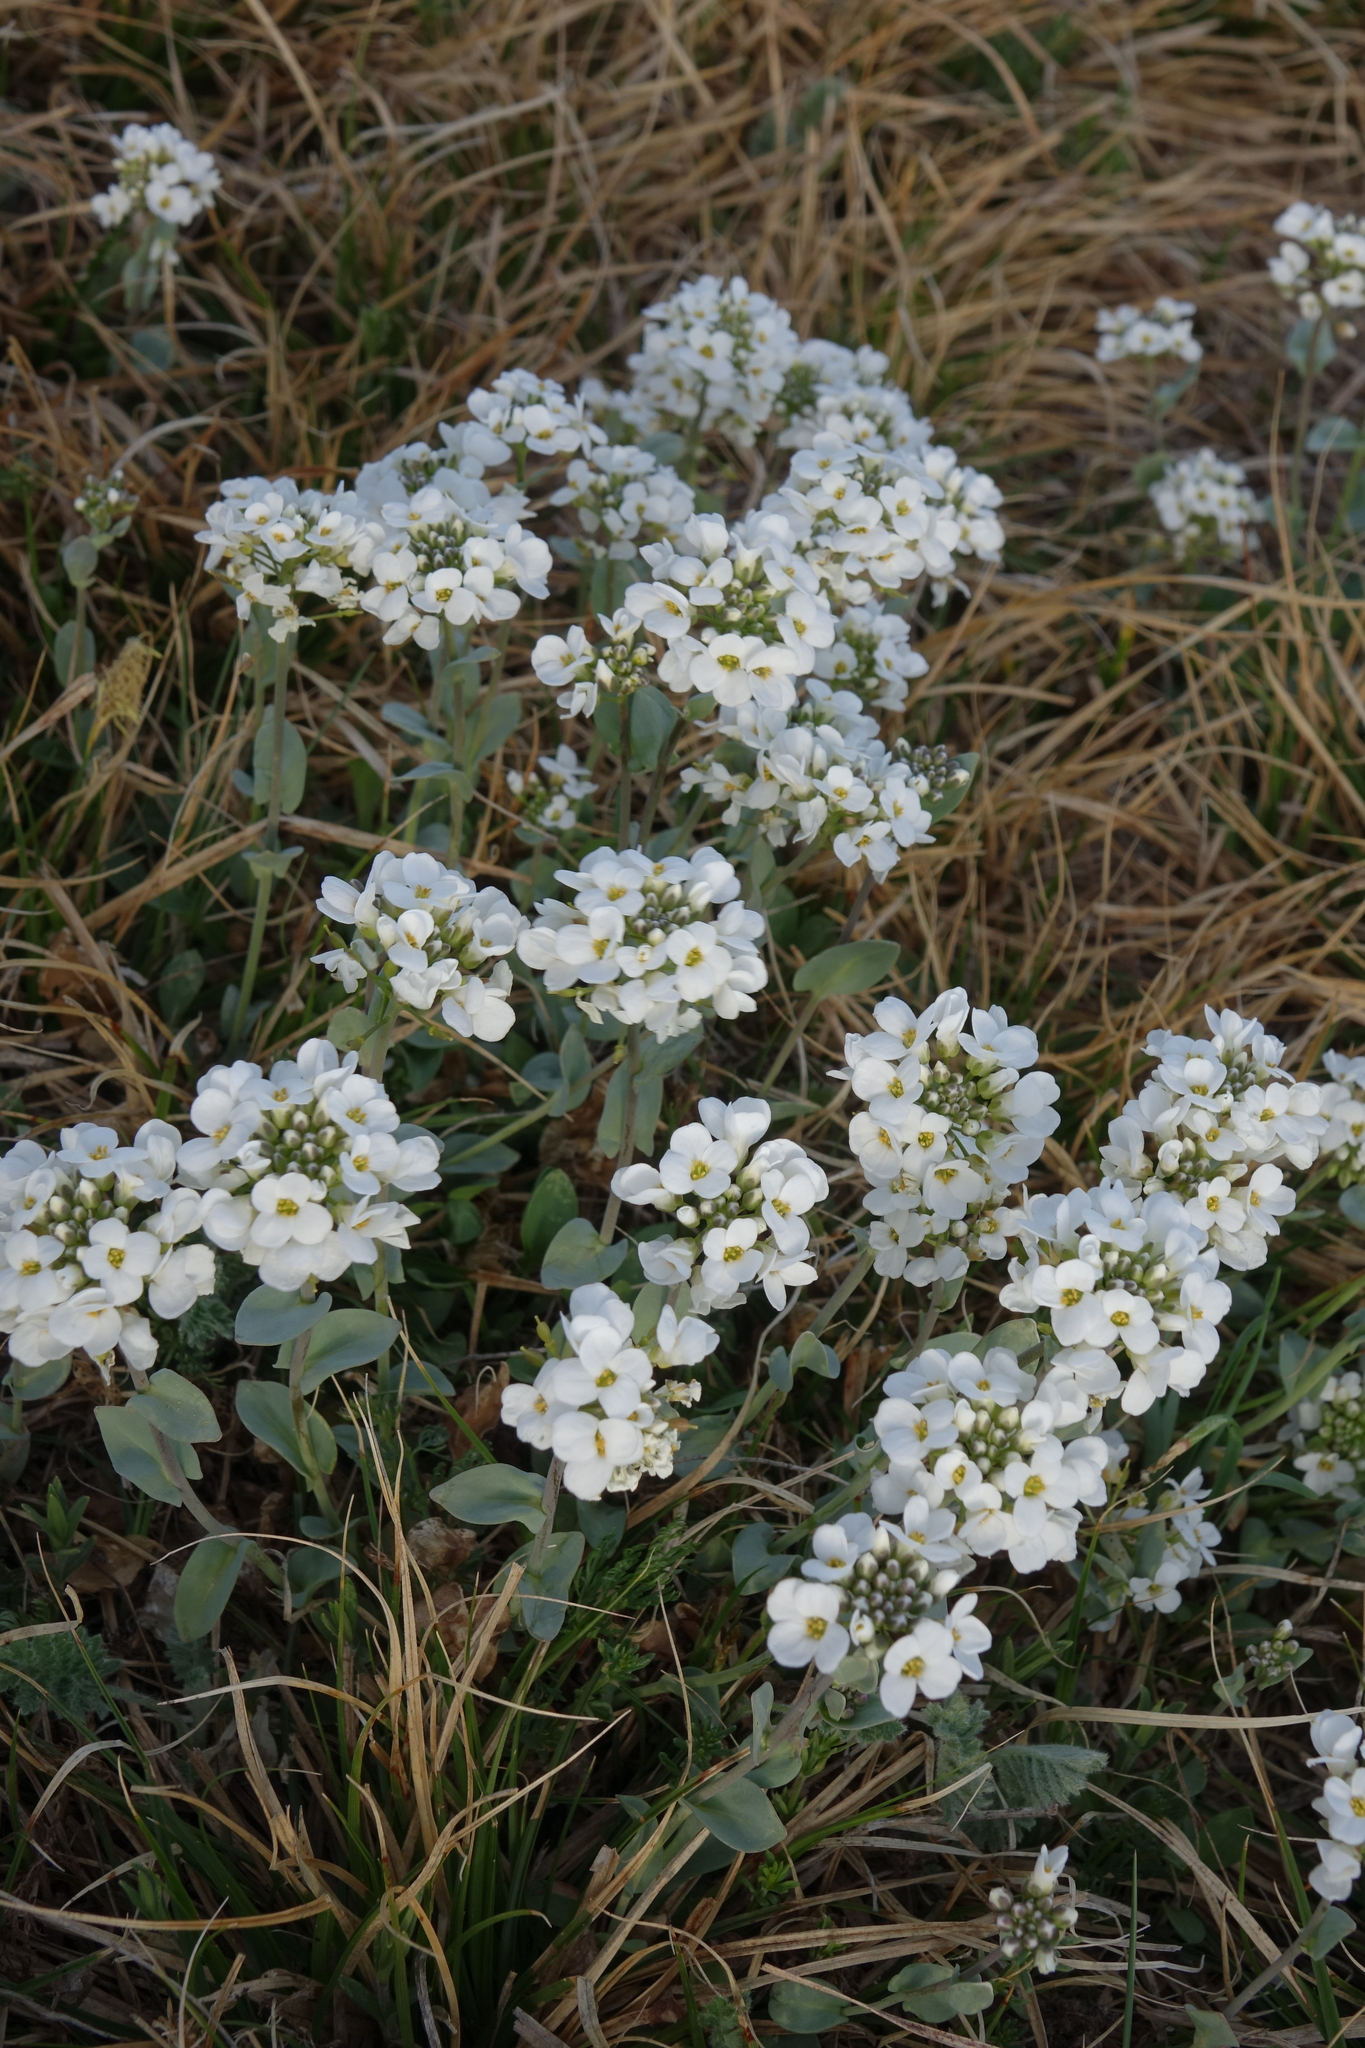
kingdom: Plantae
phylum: Tracheophyta
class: Magnoliopsida
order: Brassicales
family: Brassicaceae
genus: Noccaea
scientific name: Noccaea thlaspidioides
